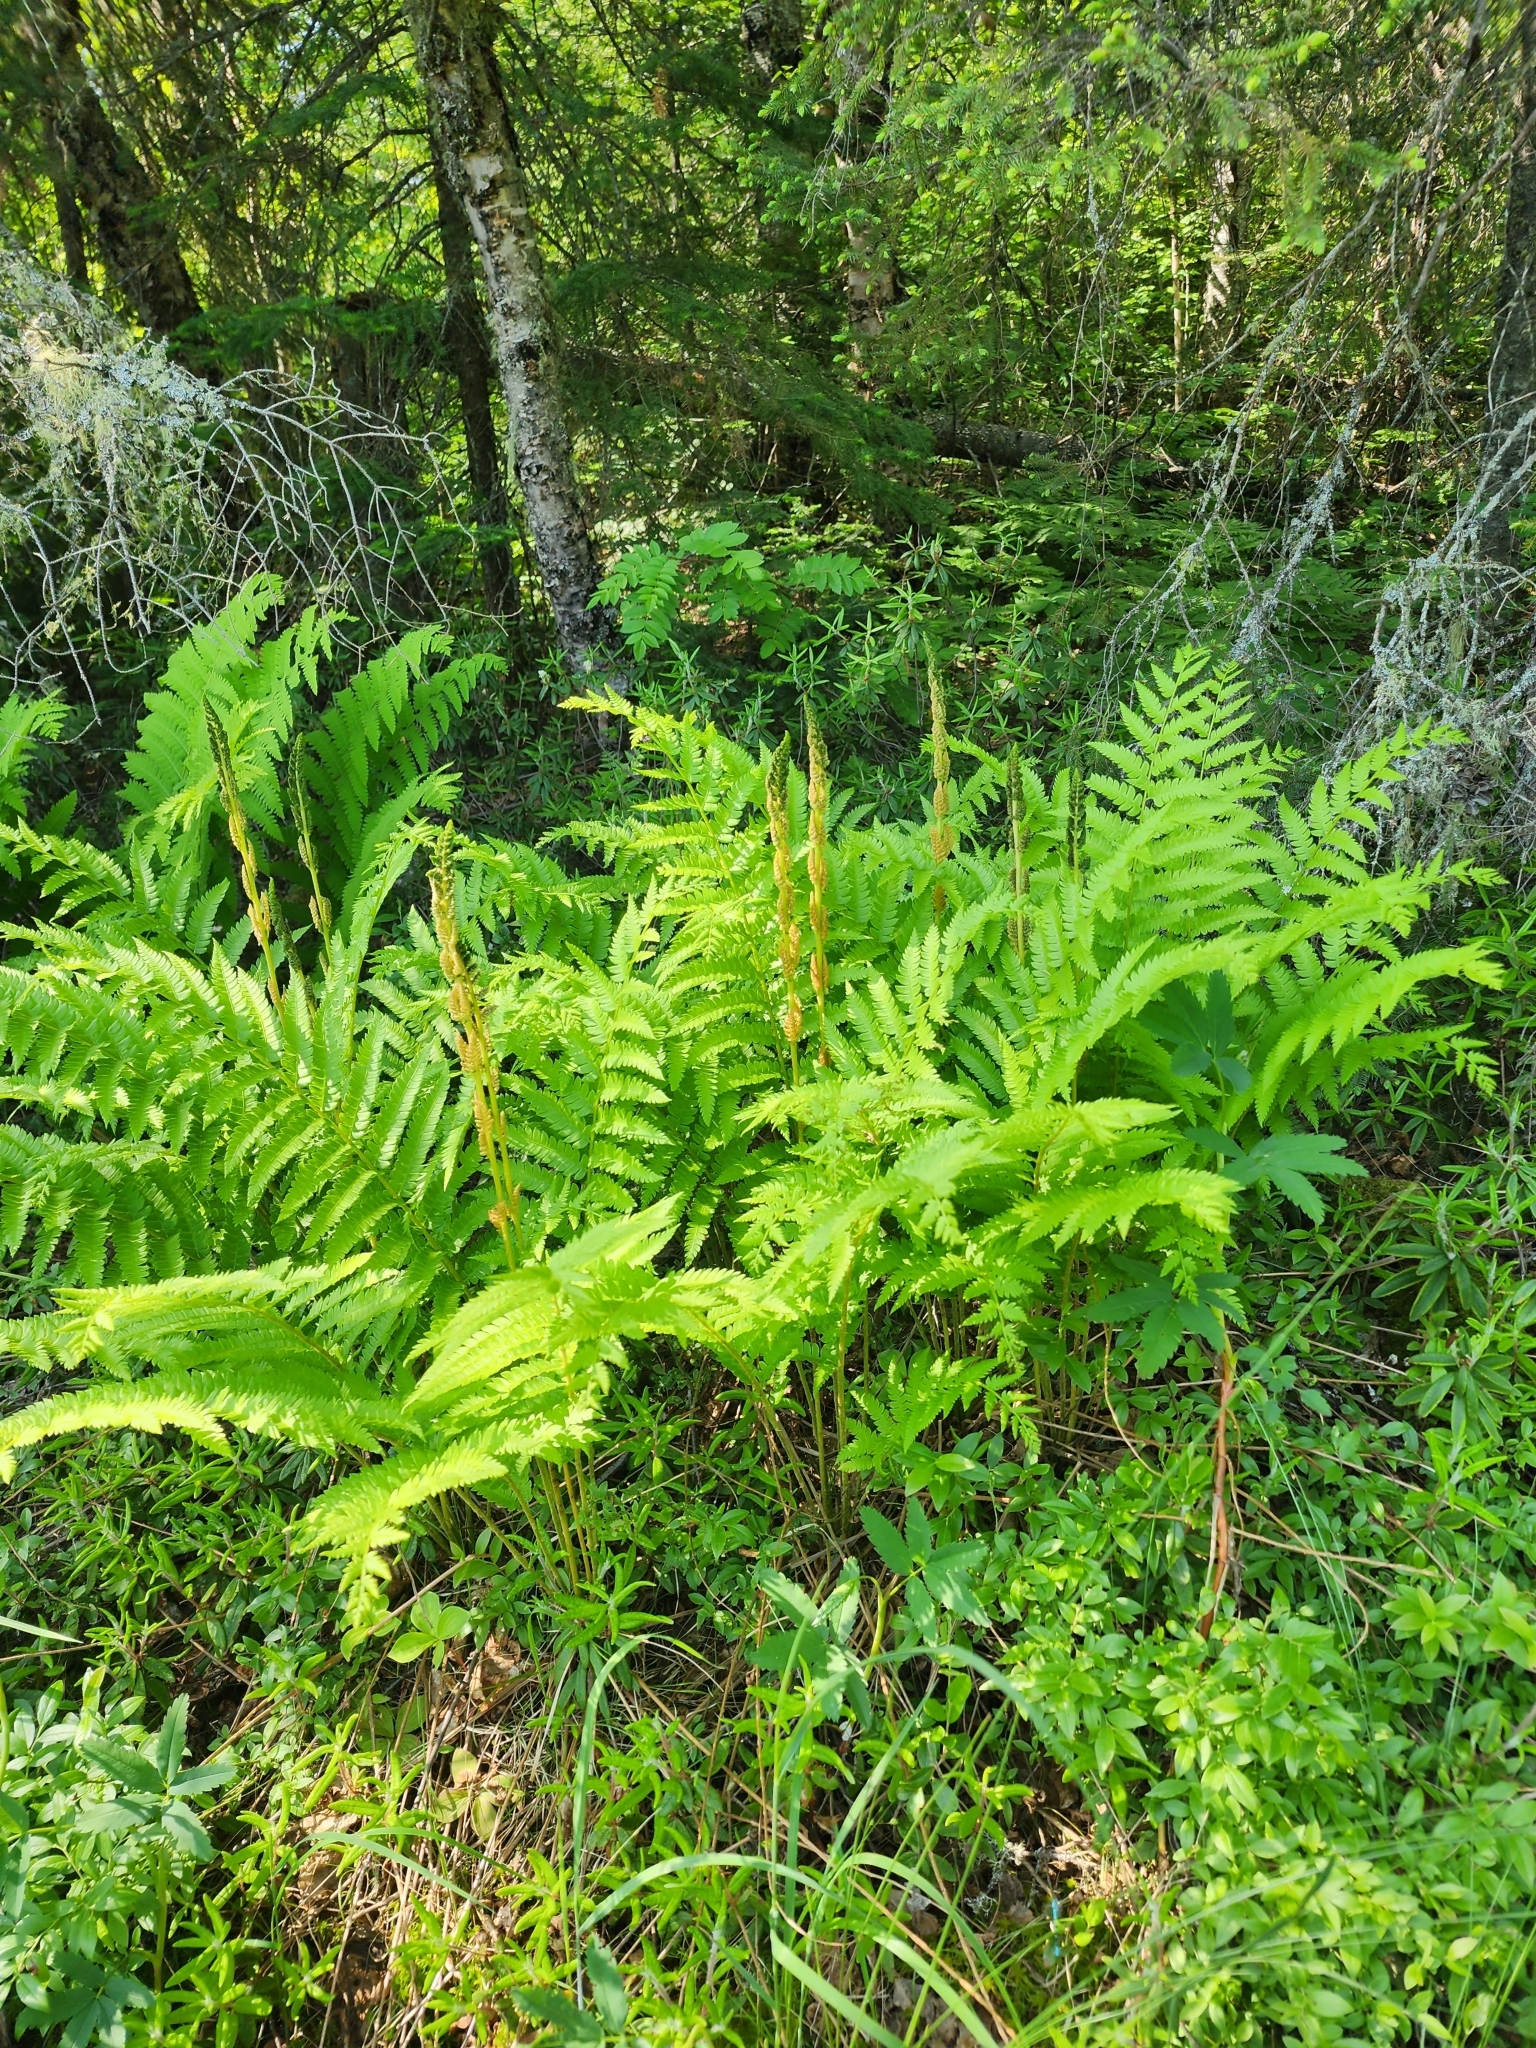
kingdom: Plantae
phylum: Tracheophyta
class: Polypodiopsida
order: Osmundales
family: Osmundaceae
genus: Osmundastrum
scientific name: Osmundastrum cinnamomeum
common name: Cinnamon fern
